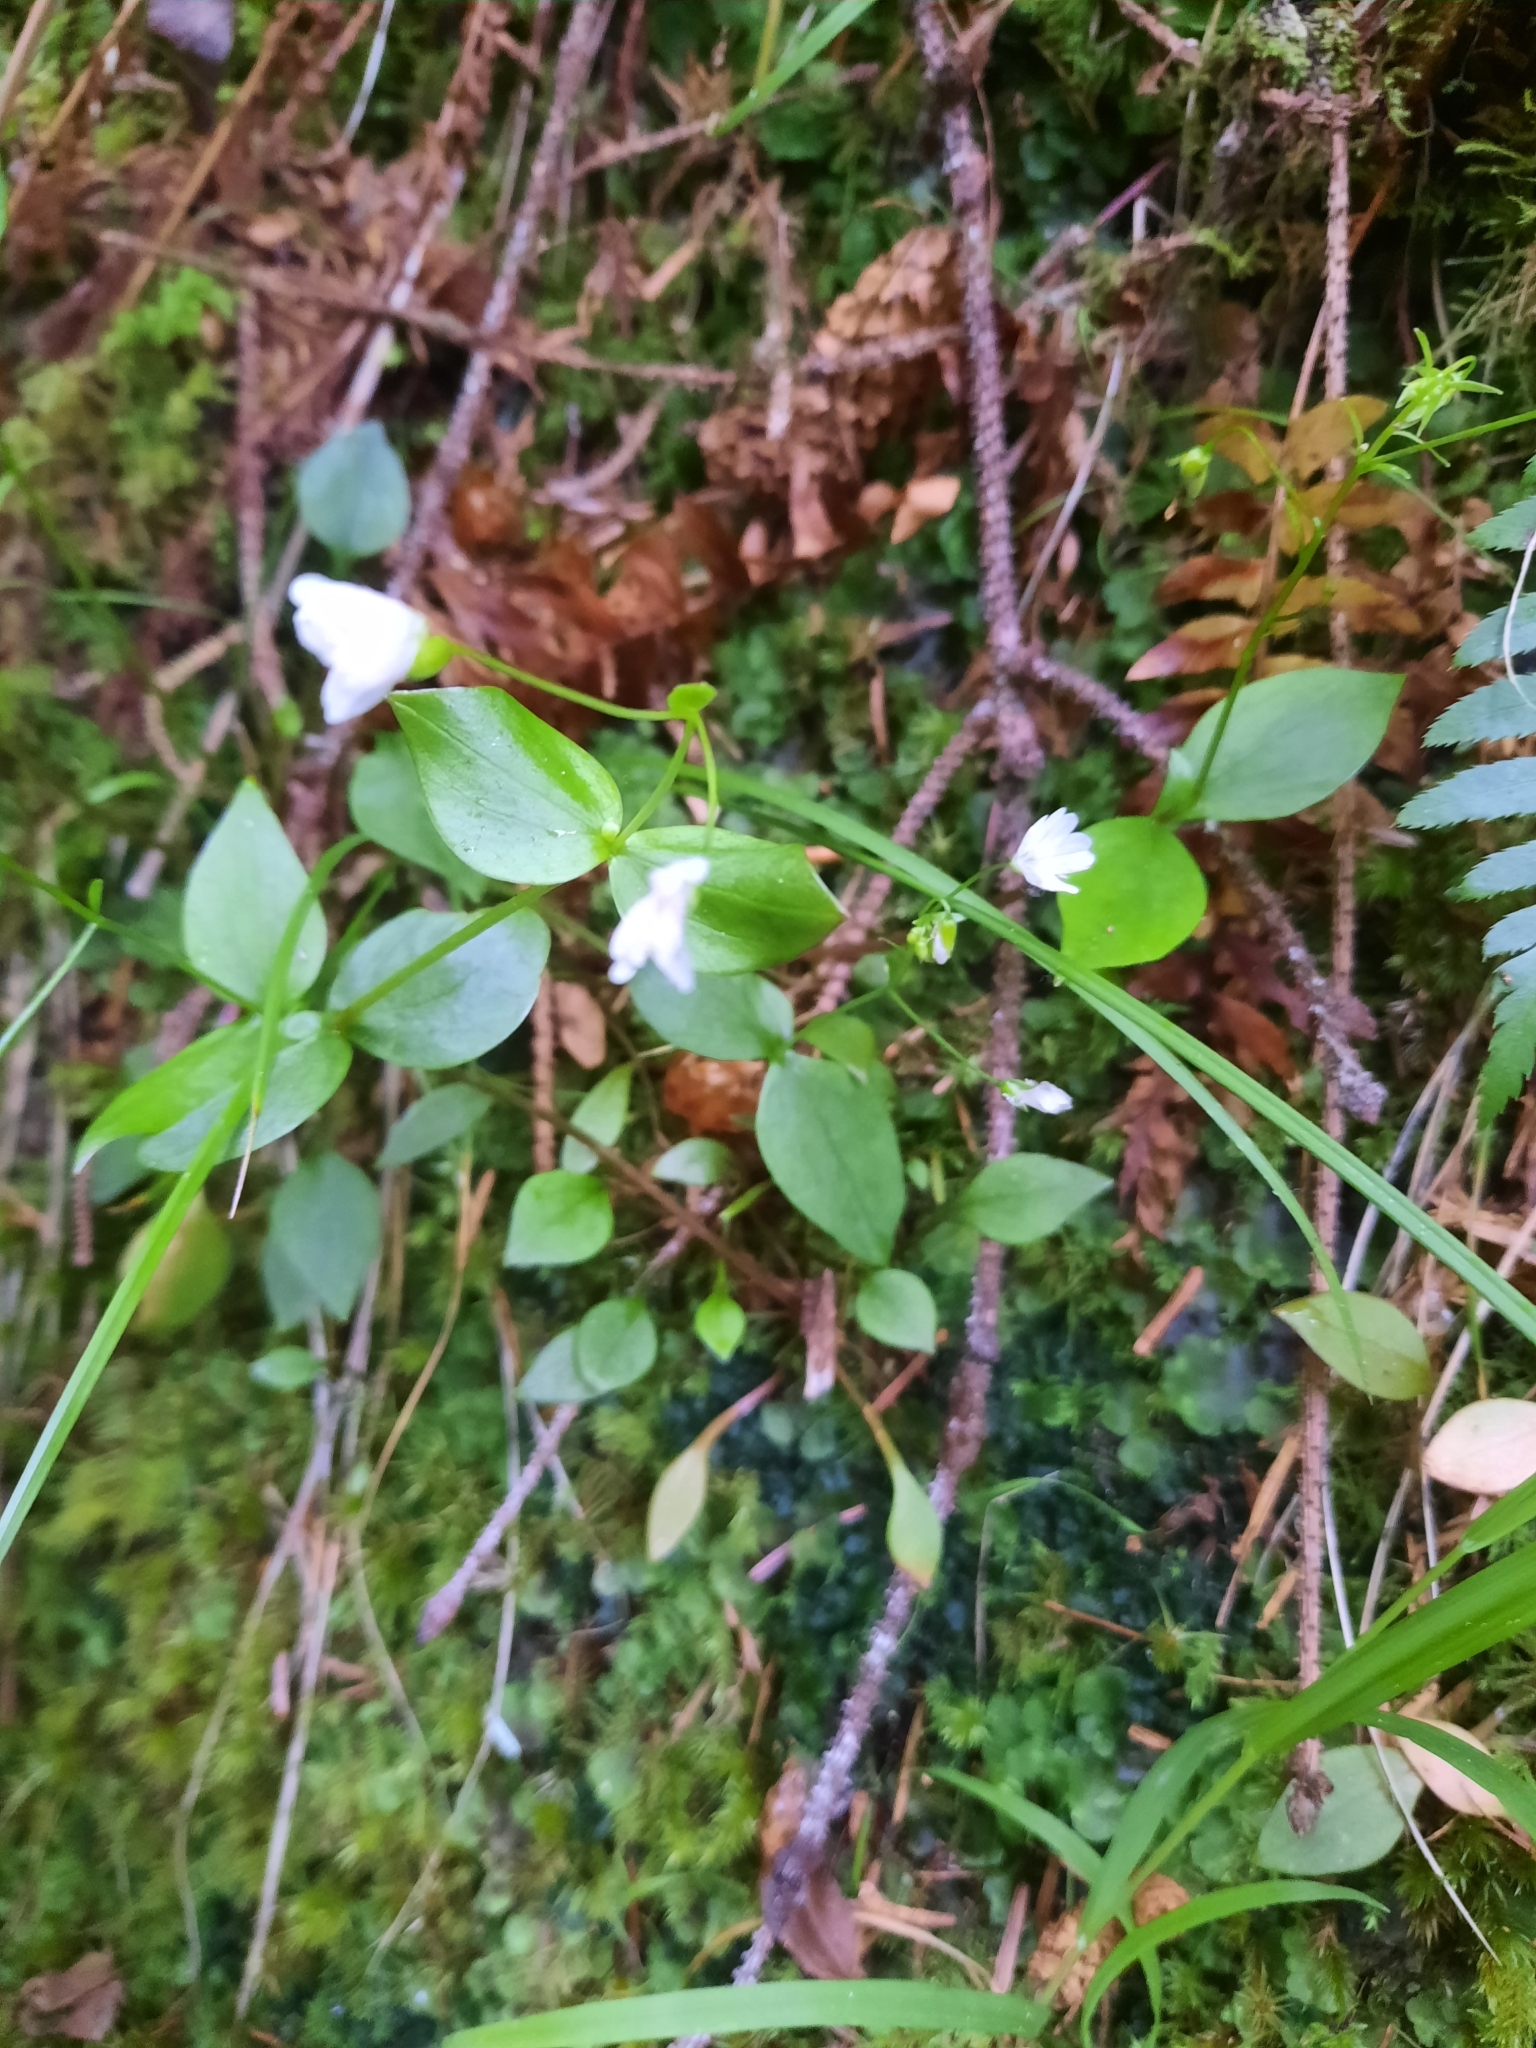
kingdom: Plantae
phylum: Tracheophyta
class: Magnoliopsida
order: Caryophyllales
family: Montiaceae
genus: Claytonia
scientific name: Claytonia sibirica
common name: Pink purslane
